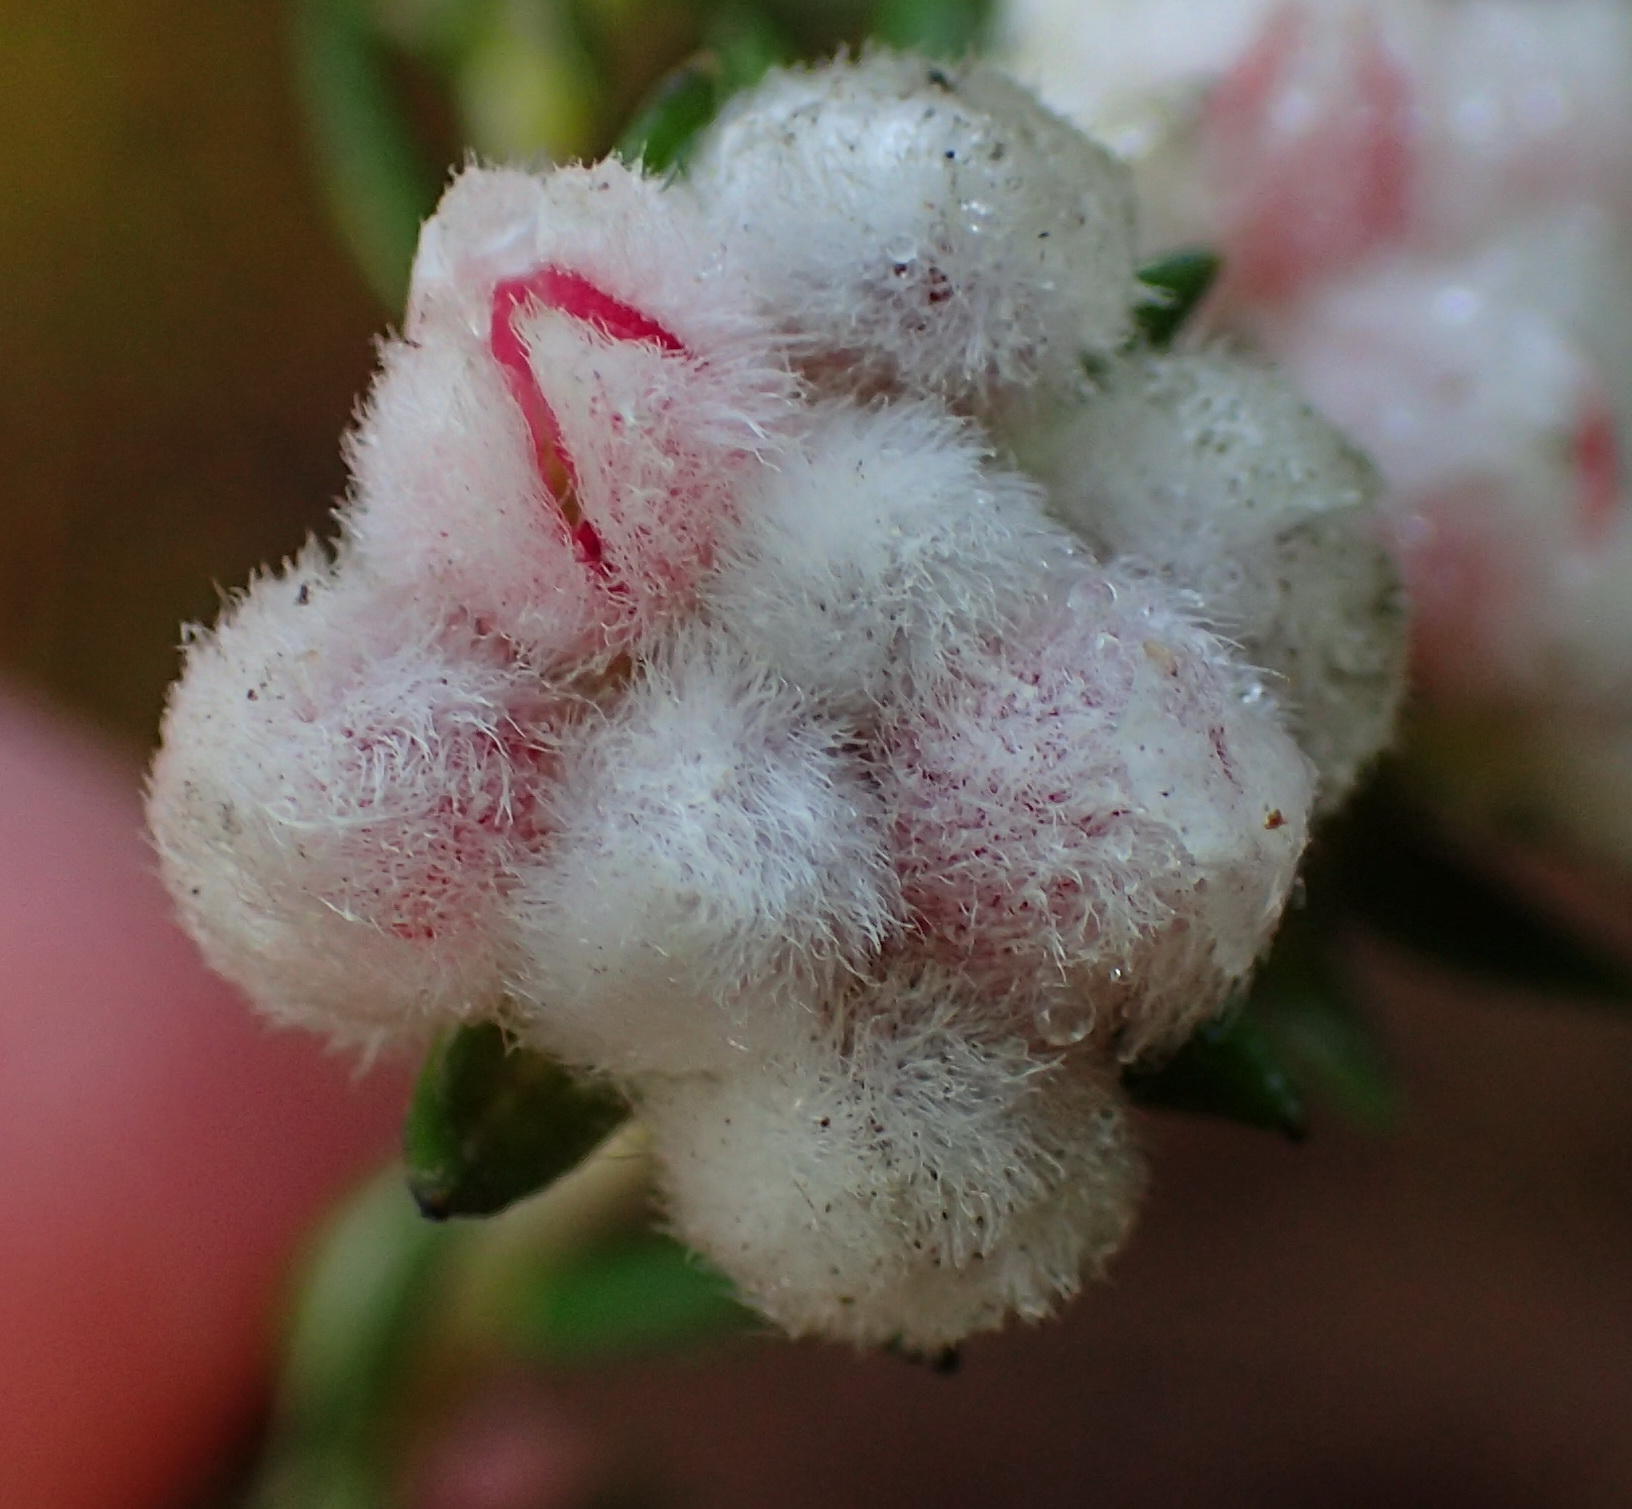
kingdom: Plantae
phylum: Tracheophyta
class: Magnoliopsida
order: Rosales
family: Rhamnaceae
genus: Phylica
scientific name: Phylica purpurea
